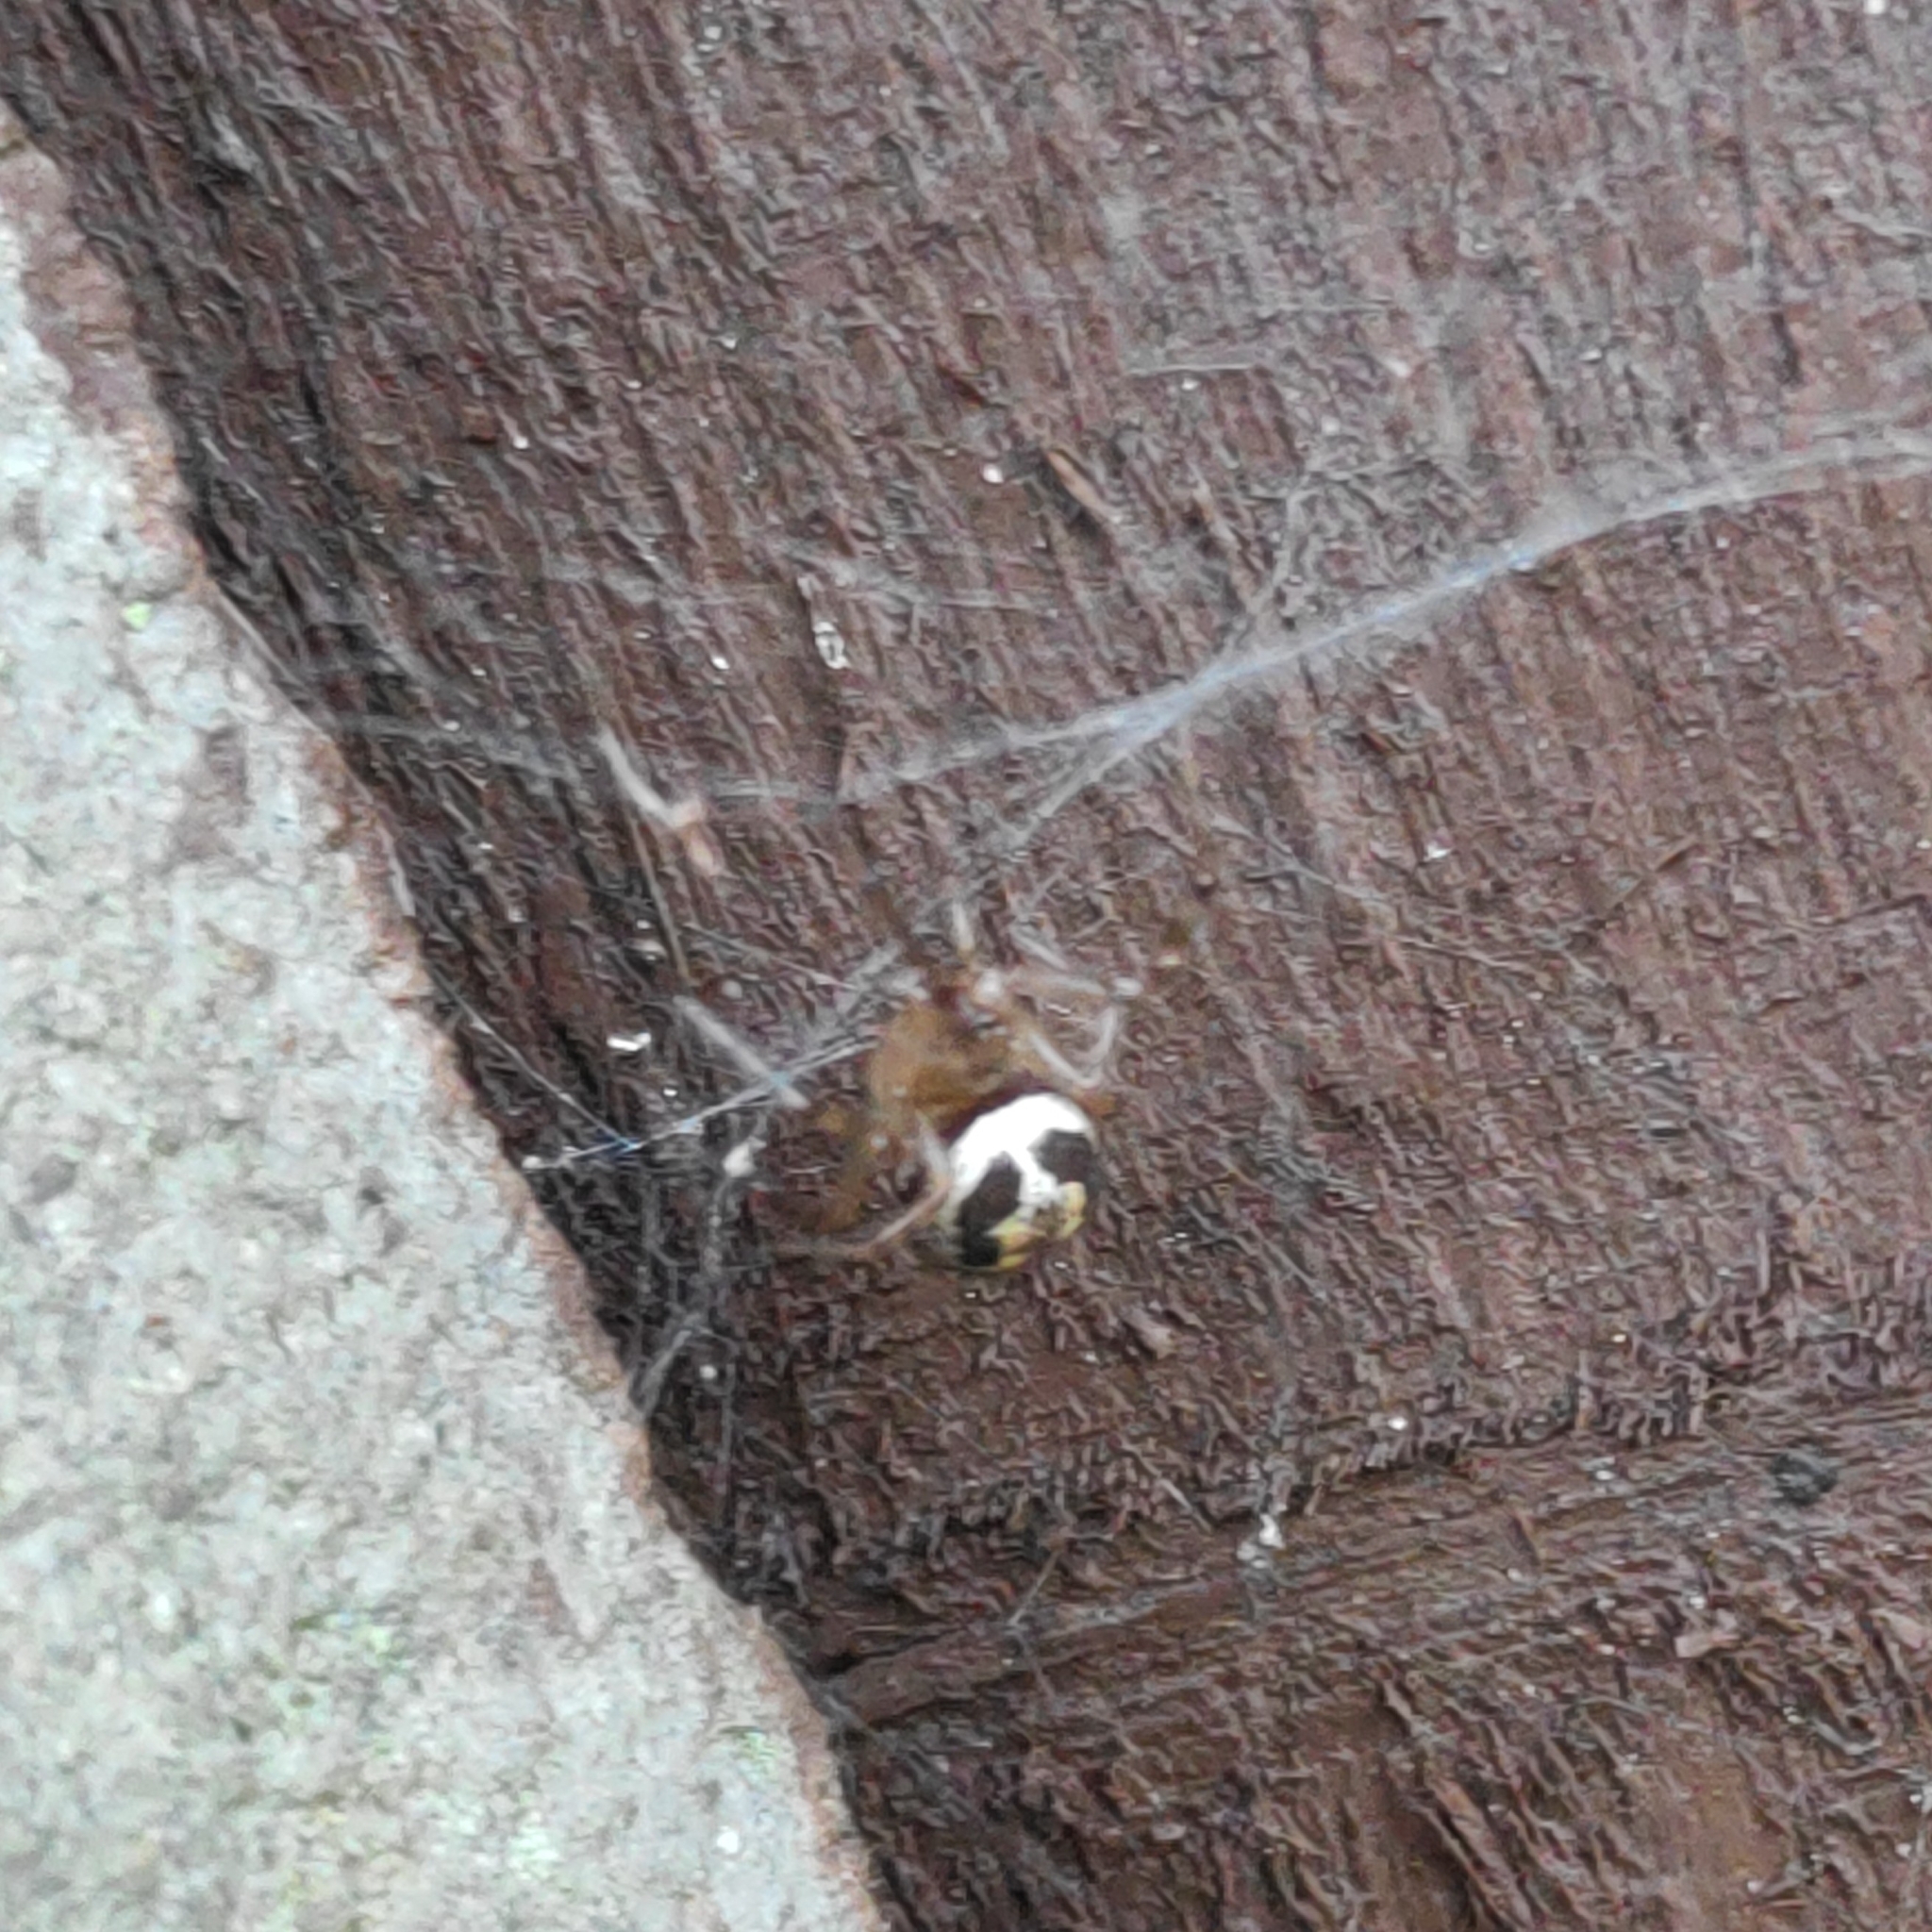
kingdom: Animalia
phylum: Arthropoda
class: Arachnida
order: Araneae
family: Theridiidae
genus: Steatoda
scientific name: Steatoda nobilis
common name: Cobweb weaver
